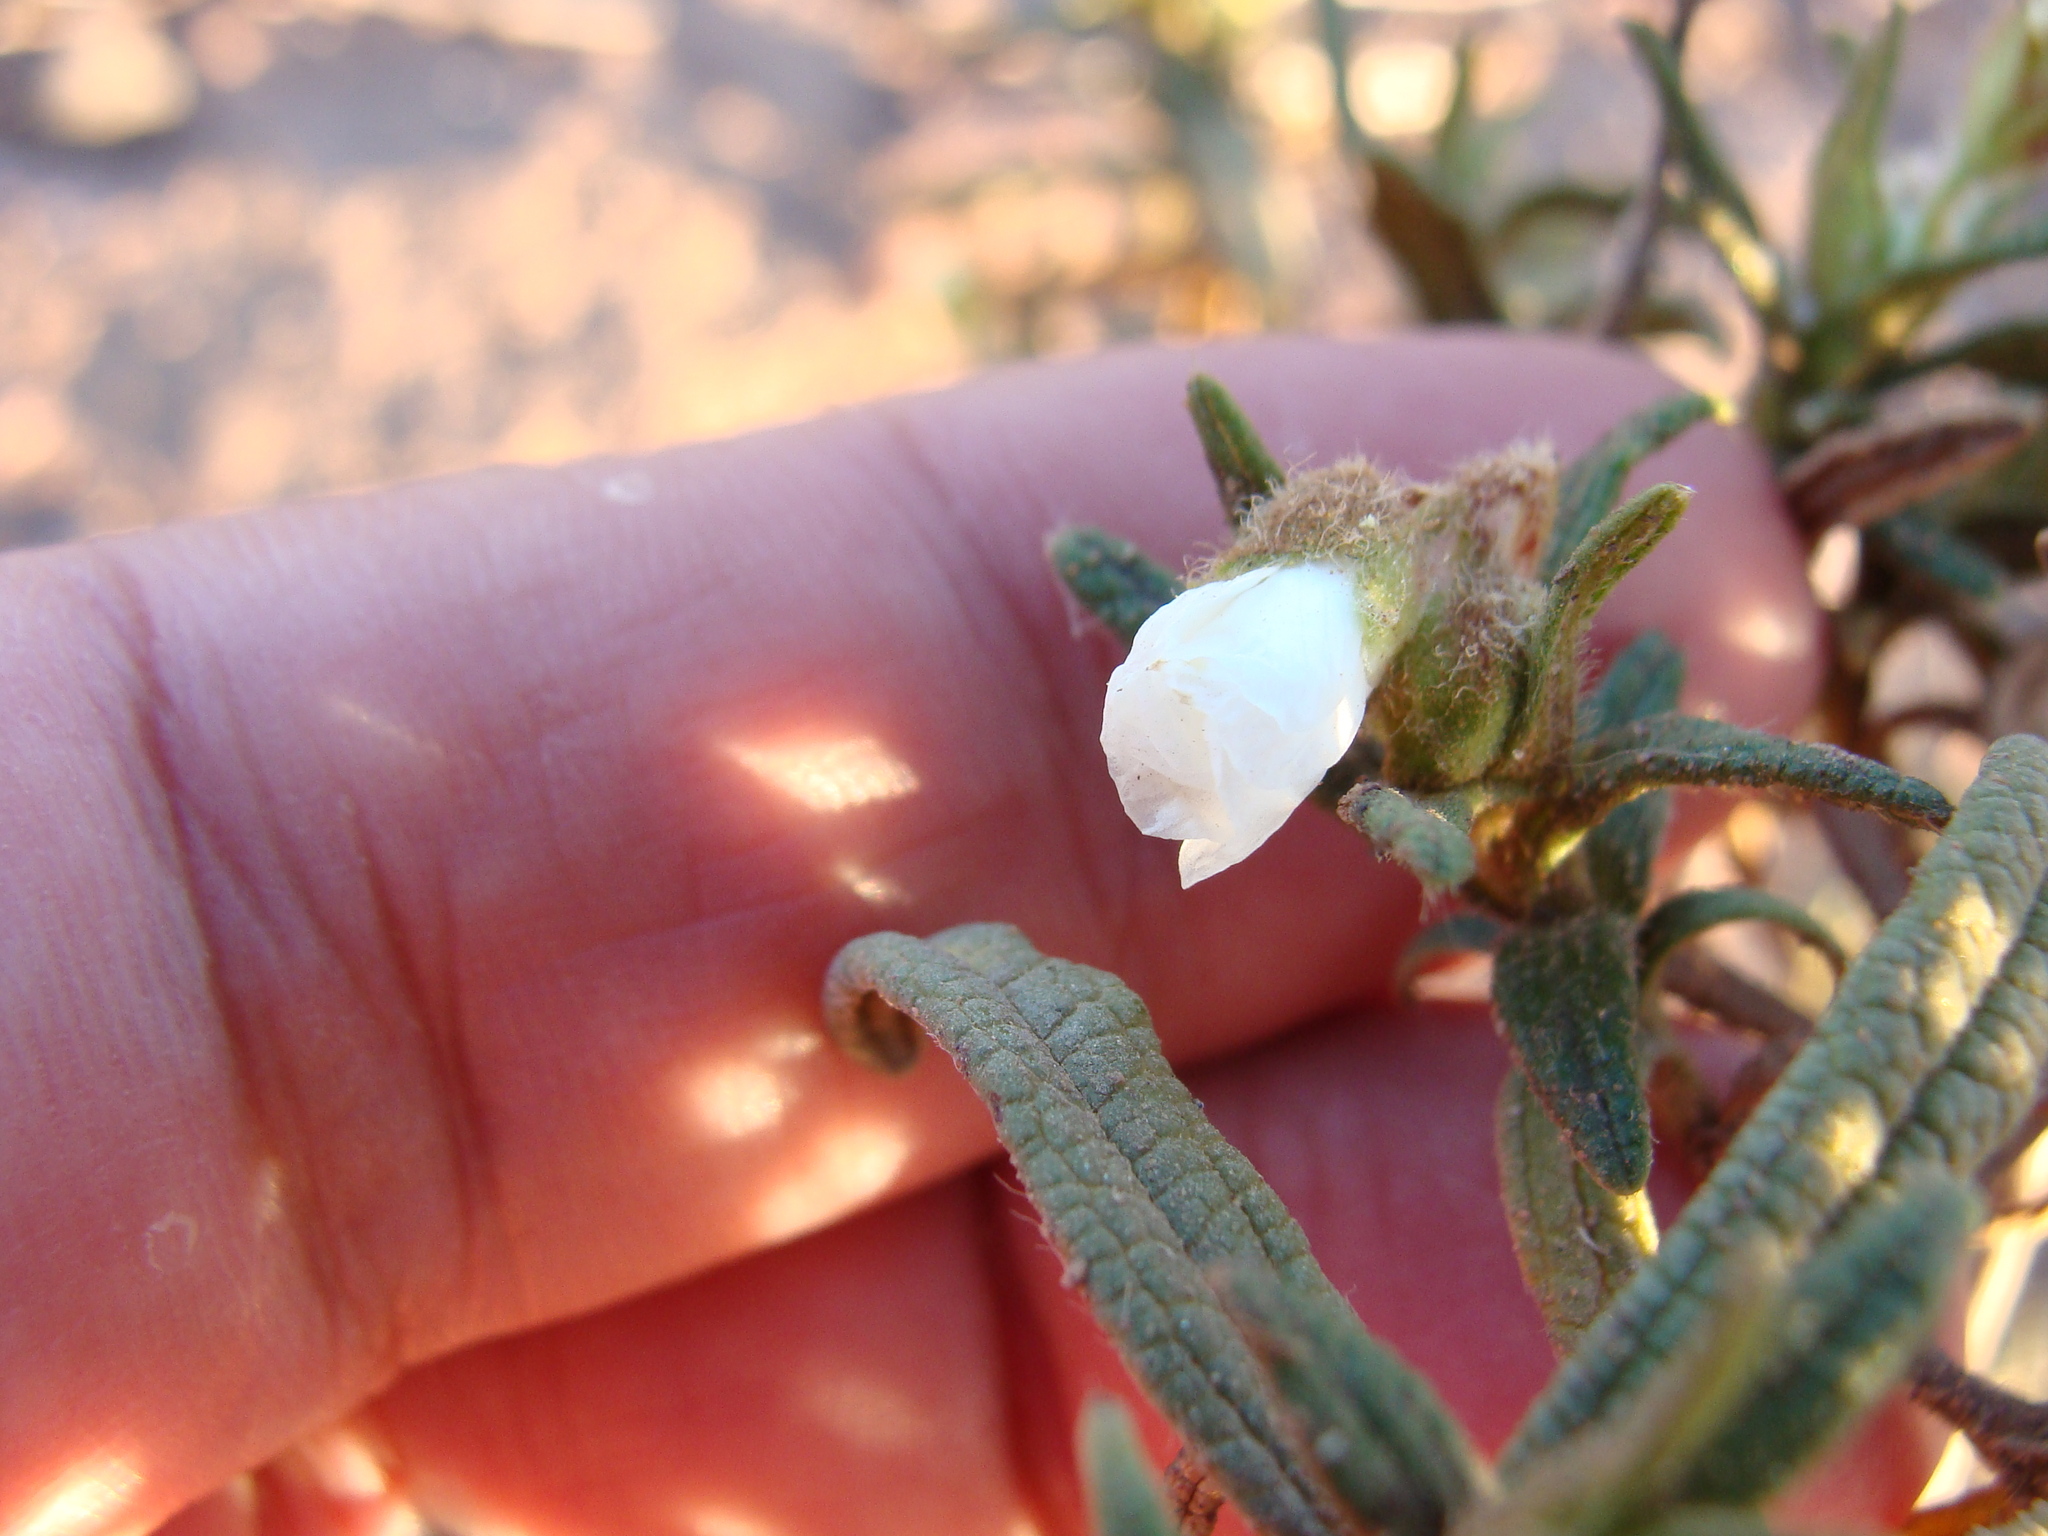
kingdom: Plantae
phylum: Tracheophyta
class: Magnoliopsida
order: Malvales
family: Cistaceae
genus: Cistus
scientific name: Cistus monspeliensis
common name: Montpelier cistus
